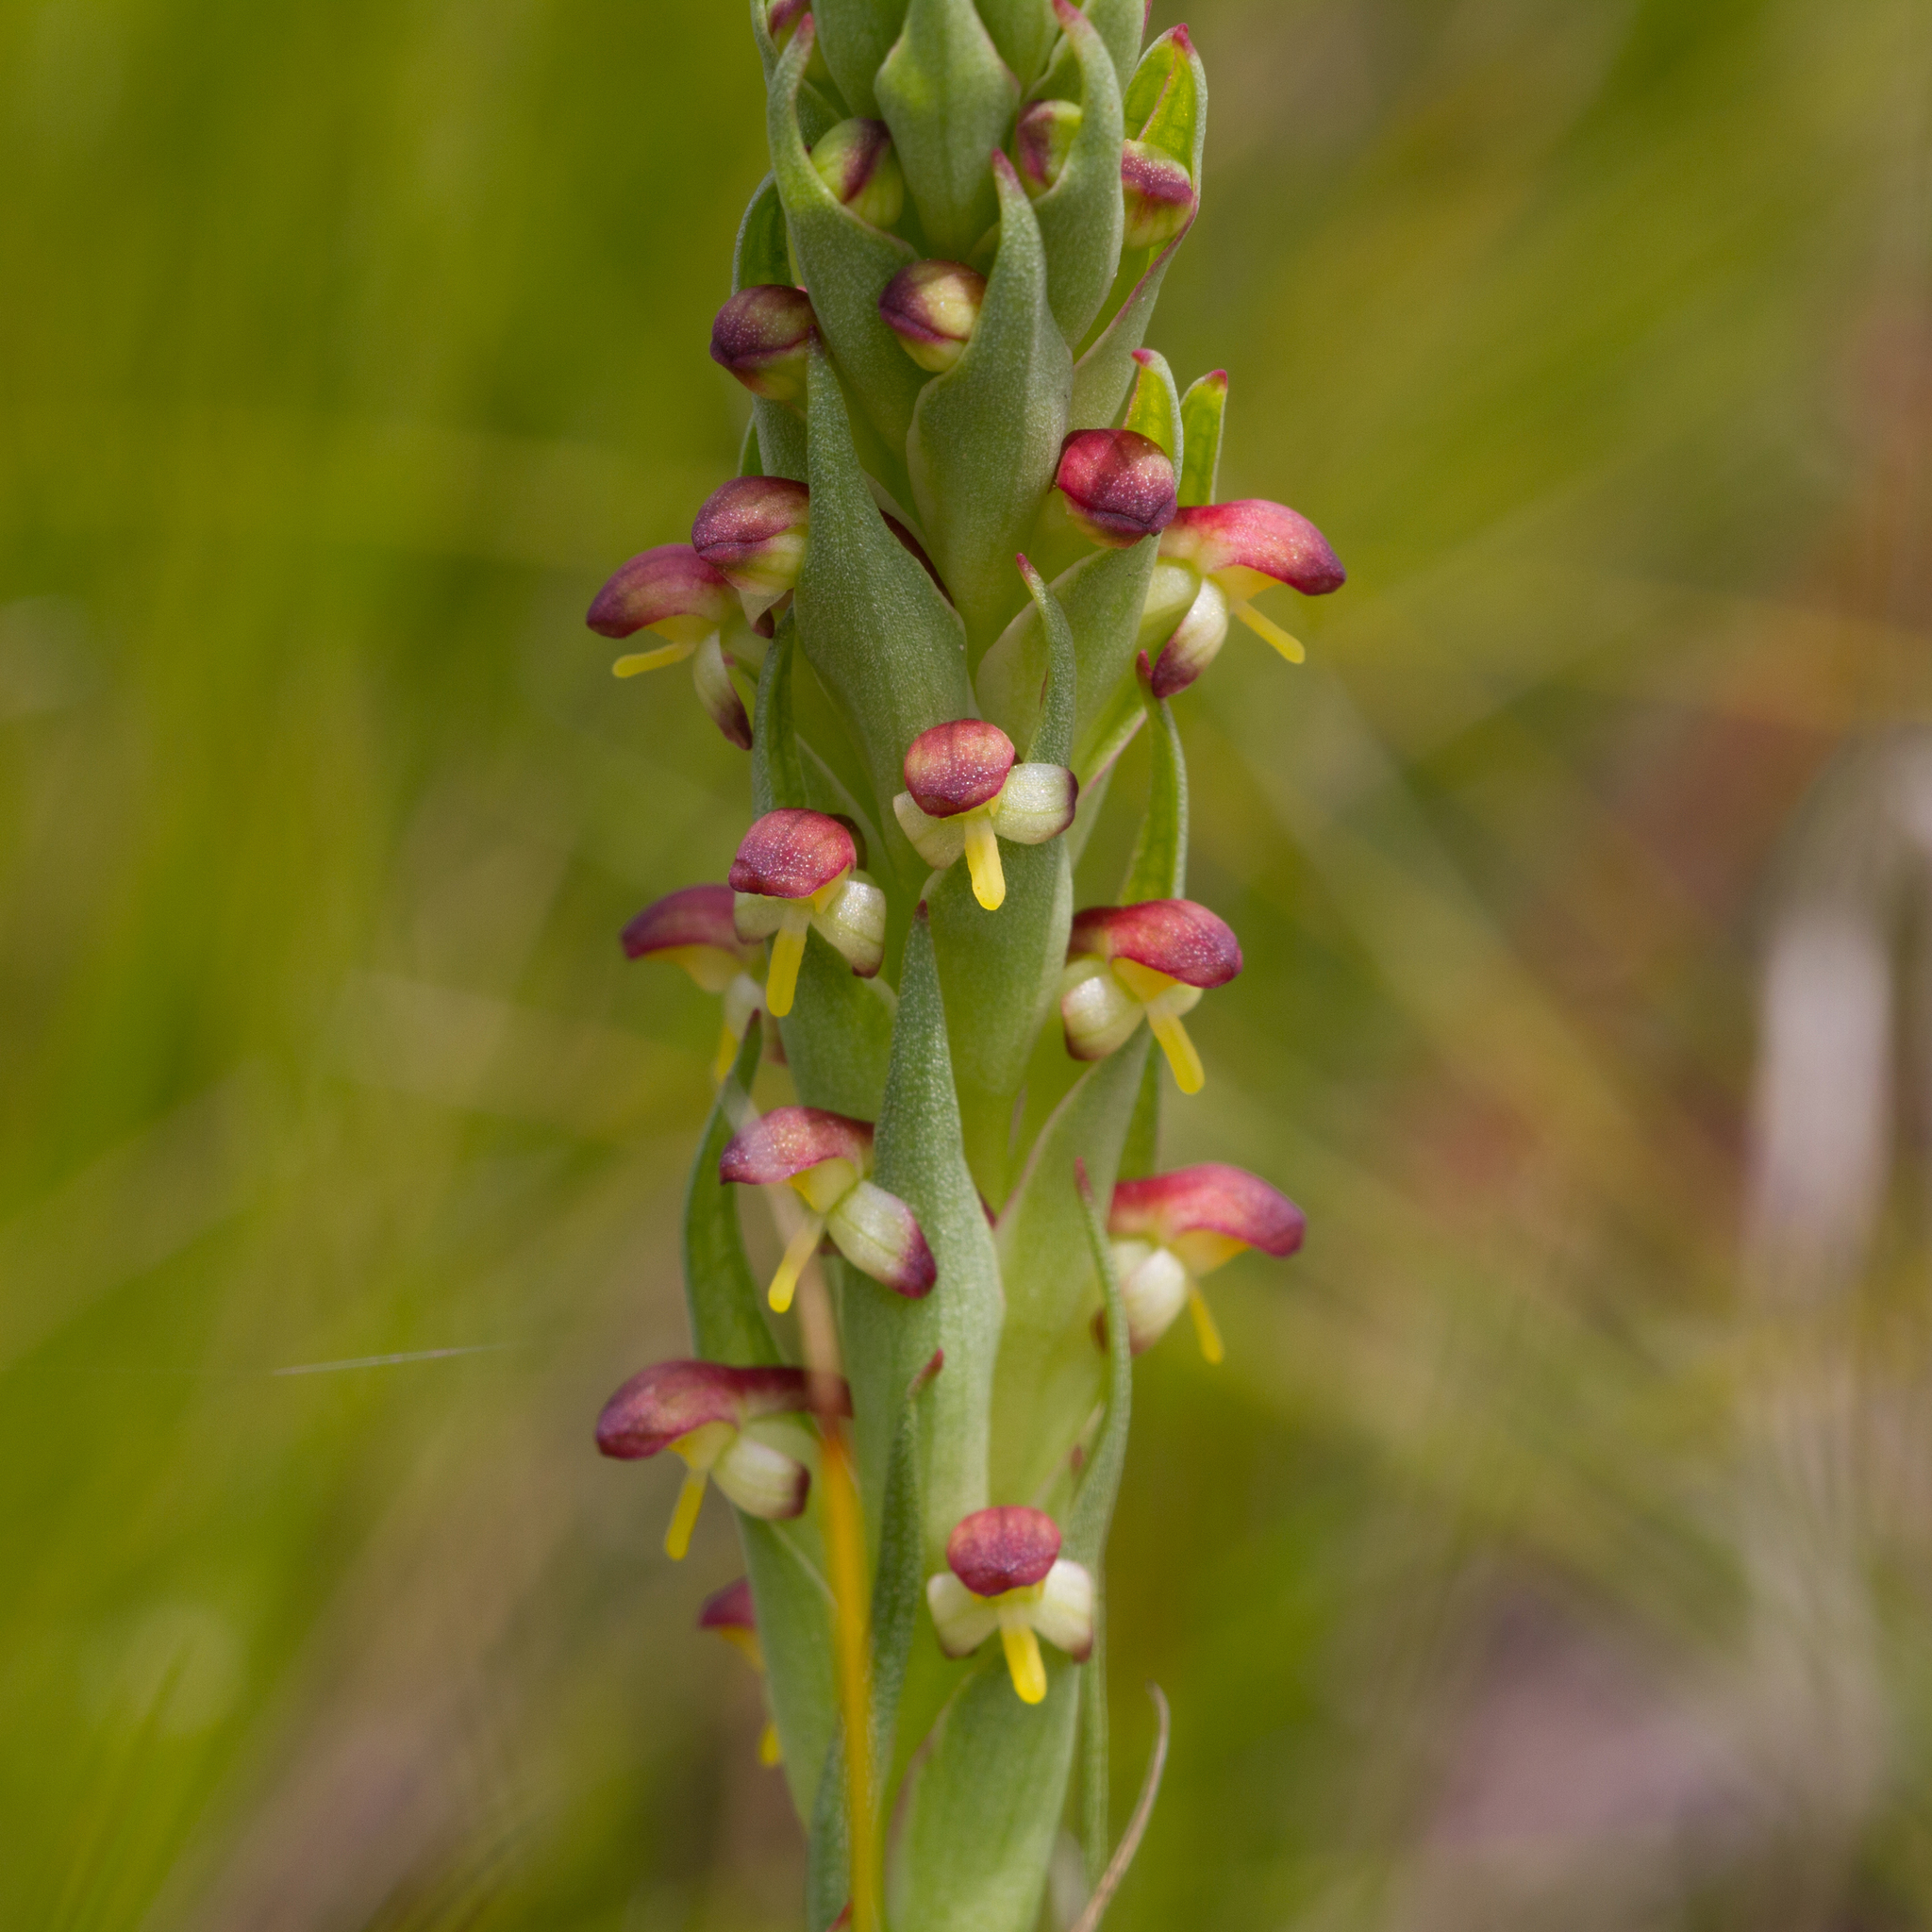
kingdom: Plantae
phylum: Tracheophyta
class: Liliopsida
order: Asparagales
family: Orchidaceae
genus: Disa
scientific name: Disa bracteata
